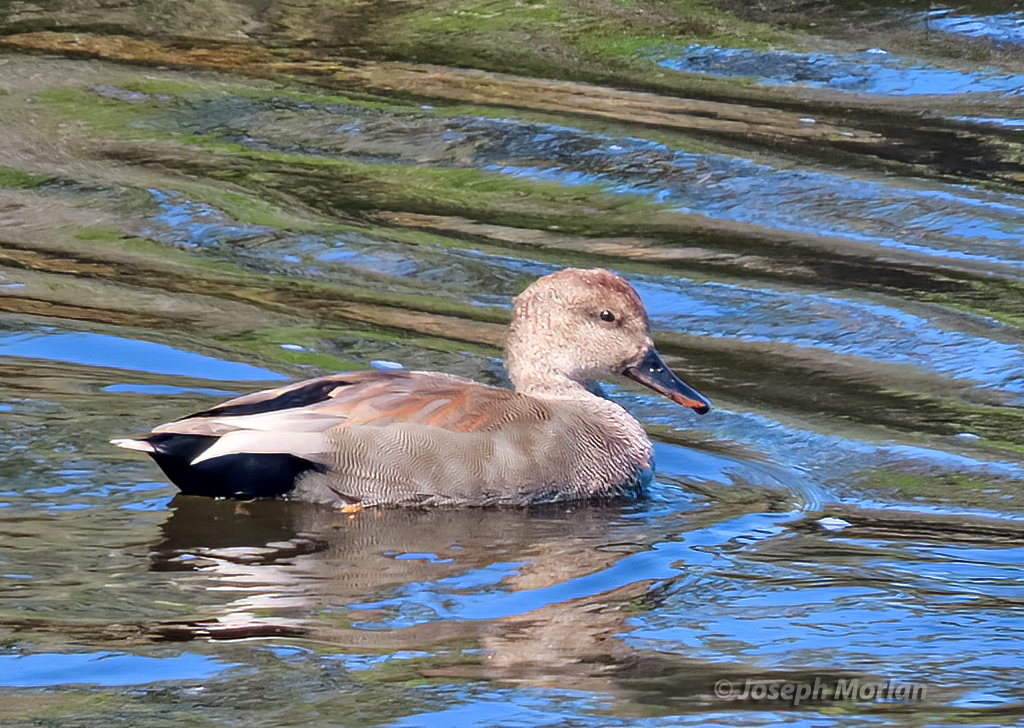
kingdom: Animalia
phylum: Chordata
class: Aves
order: Anseriformes
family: Anatidae
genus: Mareca
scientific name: Mareca strepera
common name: Gadwall
